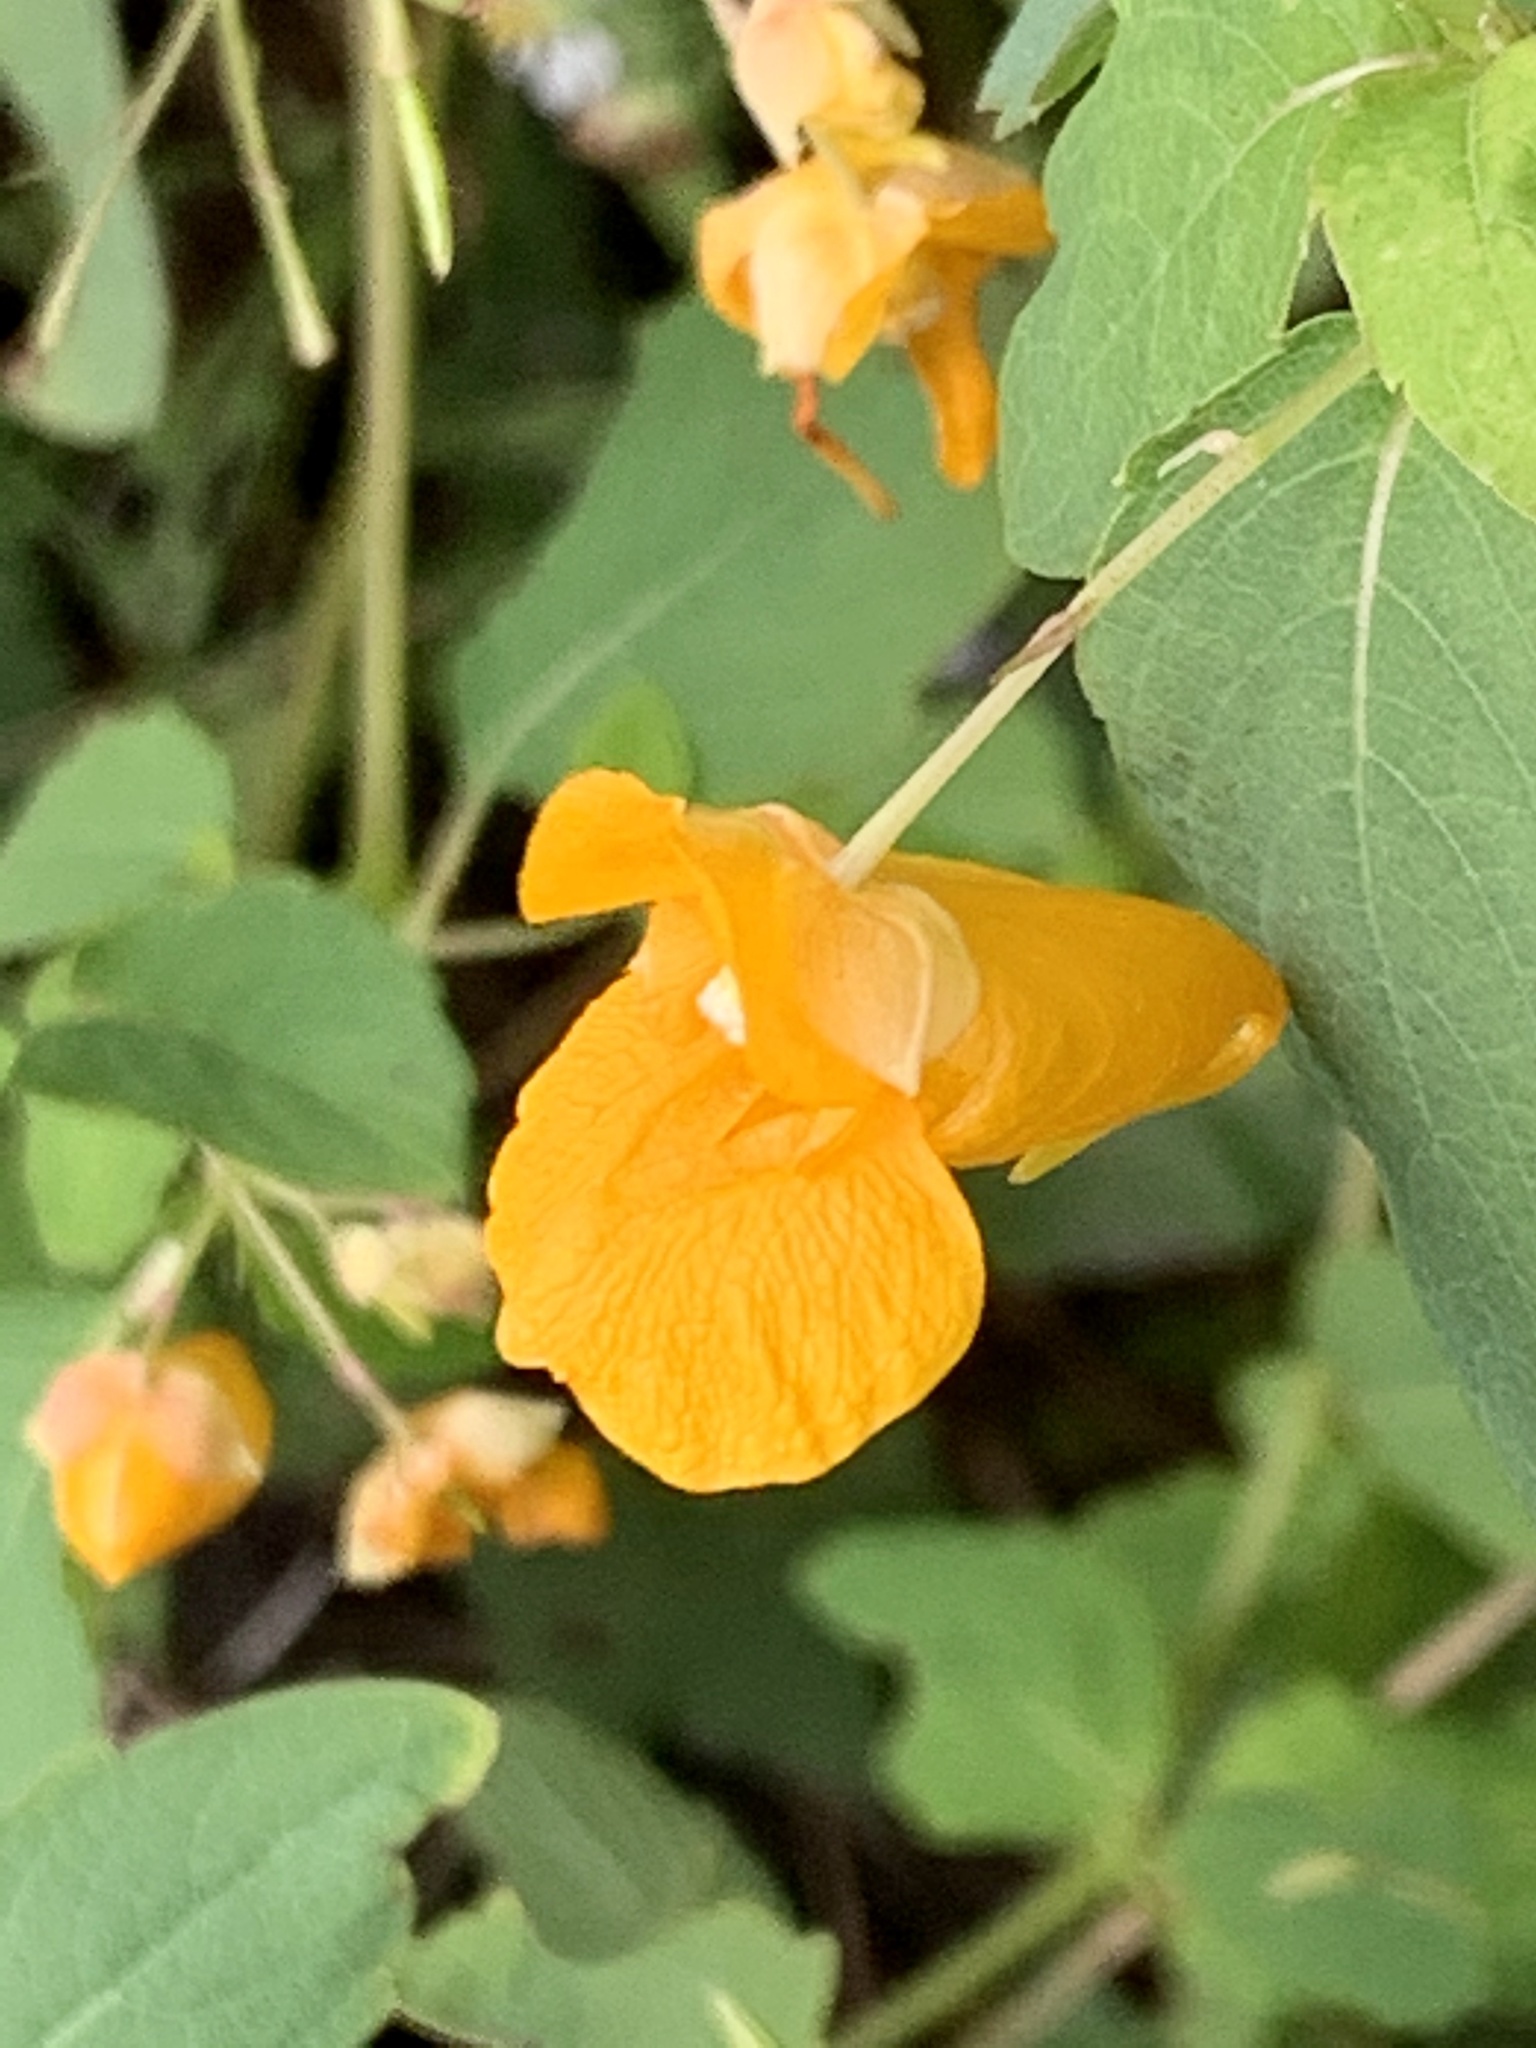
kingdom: Plantae
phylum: Tracheophyta
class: Magnoliopsida
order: Ericales
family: Balsaminaceae
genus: Impatiens
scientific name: Impatiens capensis
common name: Orange balsam
